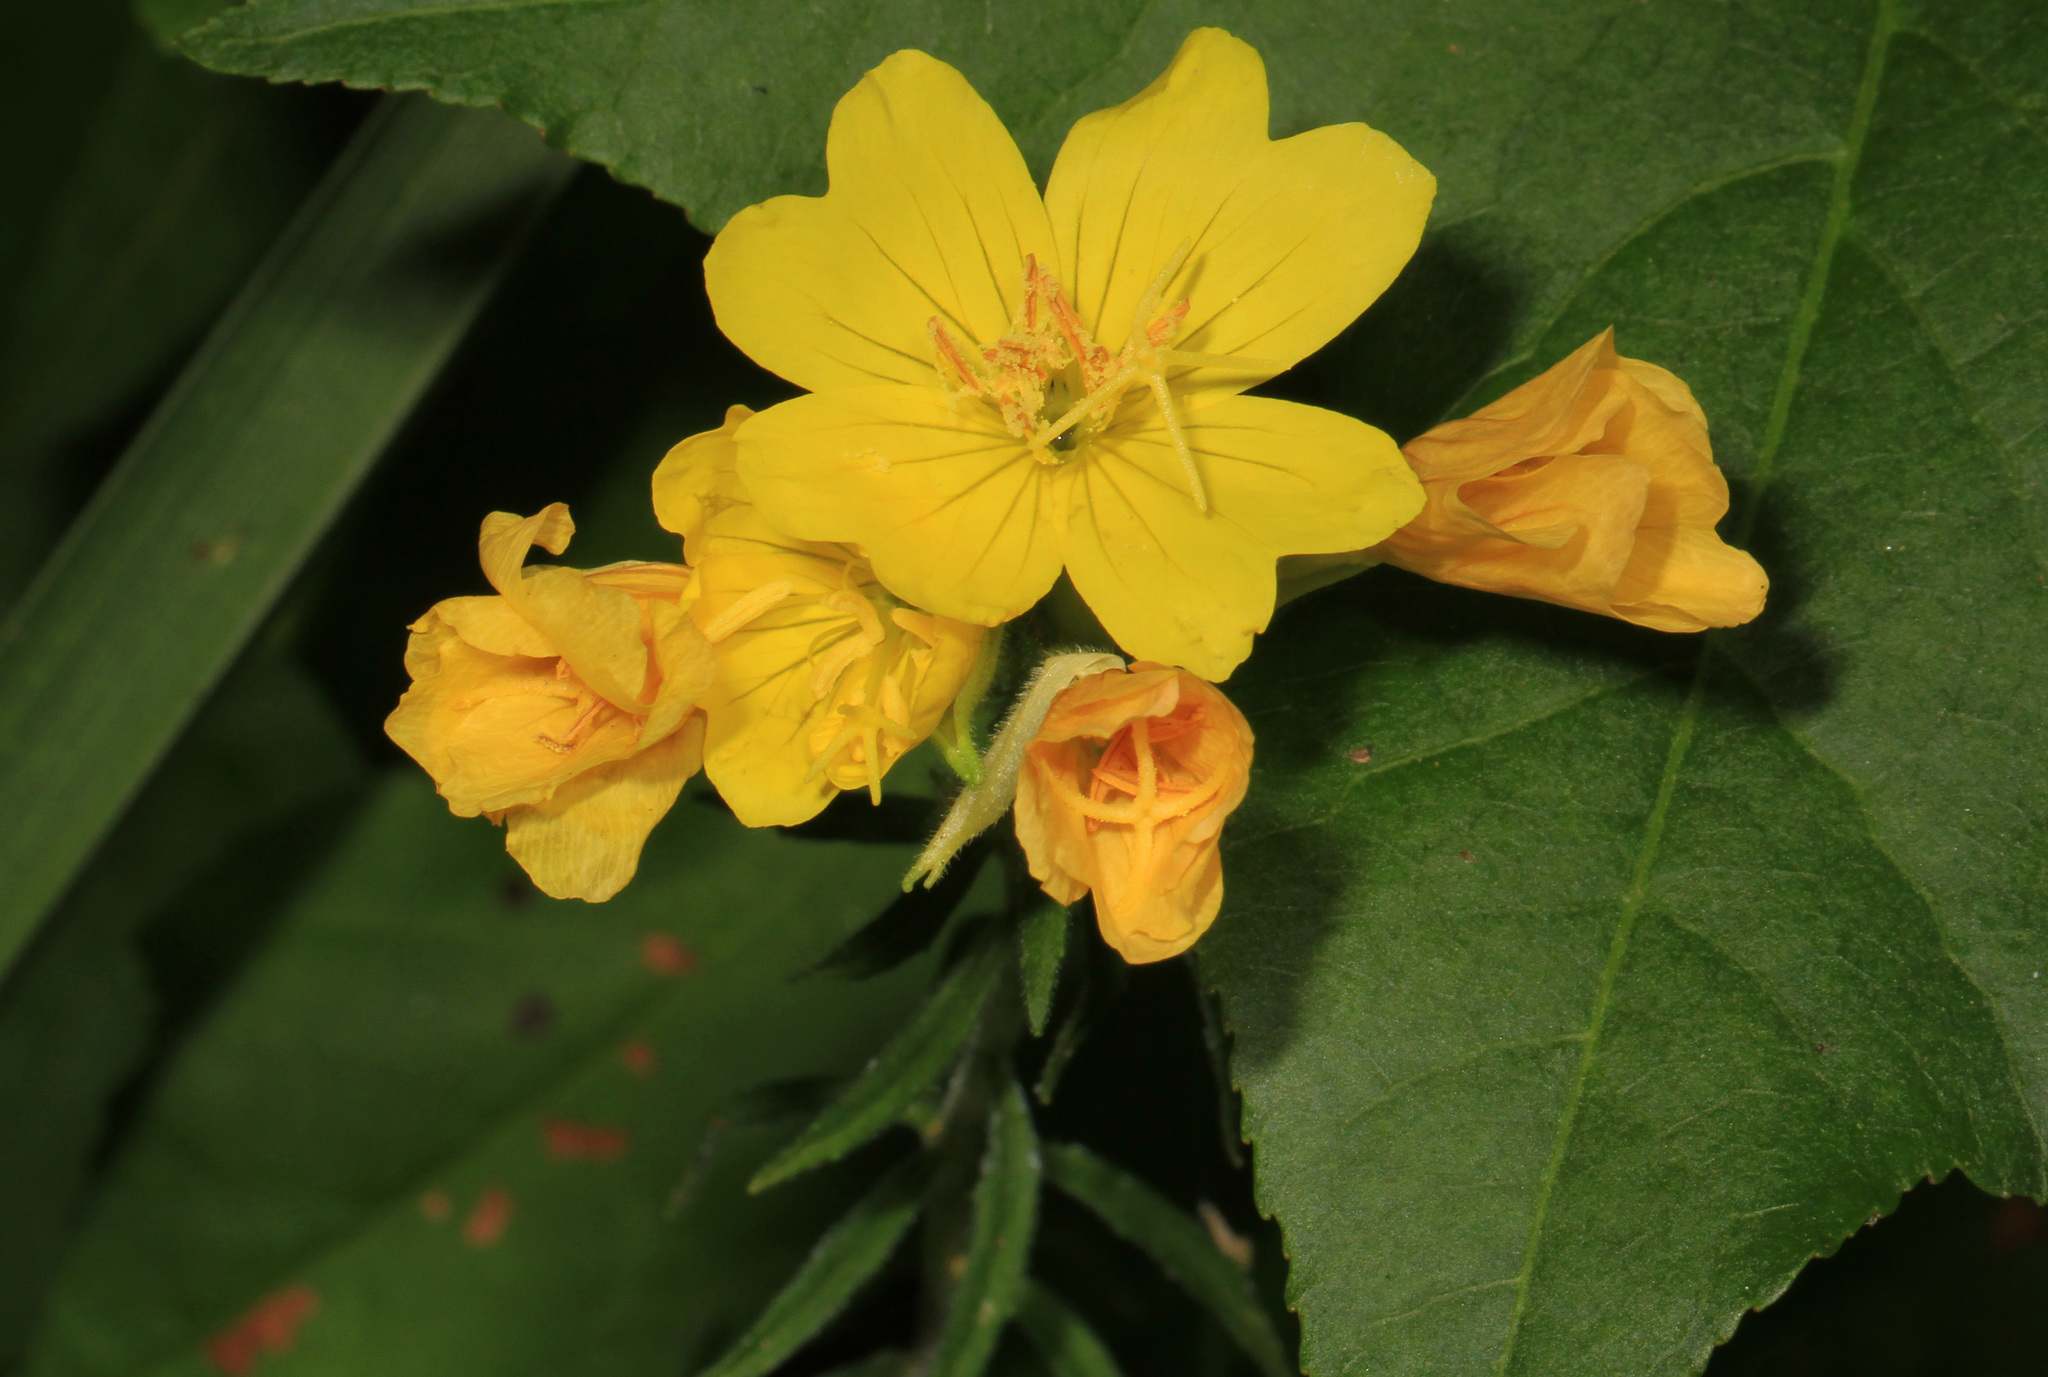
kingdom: Plantae
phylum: Tracheophyta
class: Magnoliopsida
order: Myrtales
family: Onagraceae
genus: Oenothera
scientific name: Oenothera fruticosa
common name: Southern sundrops
